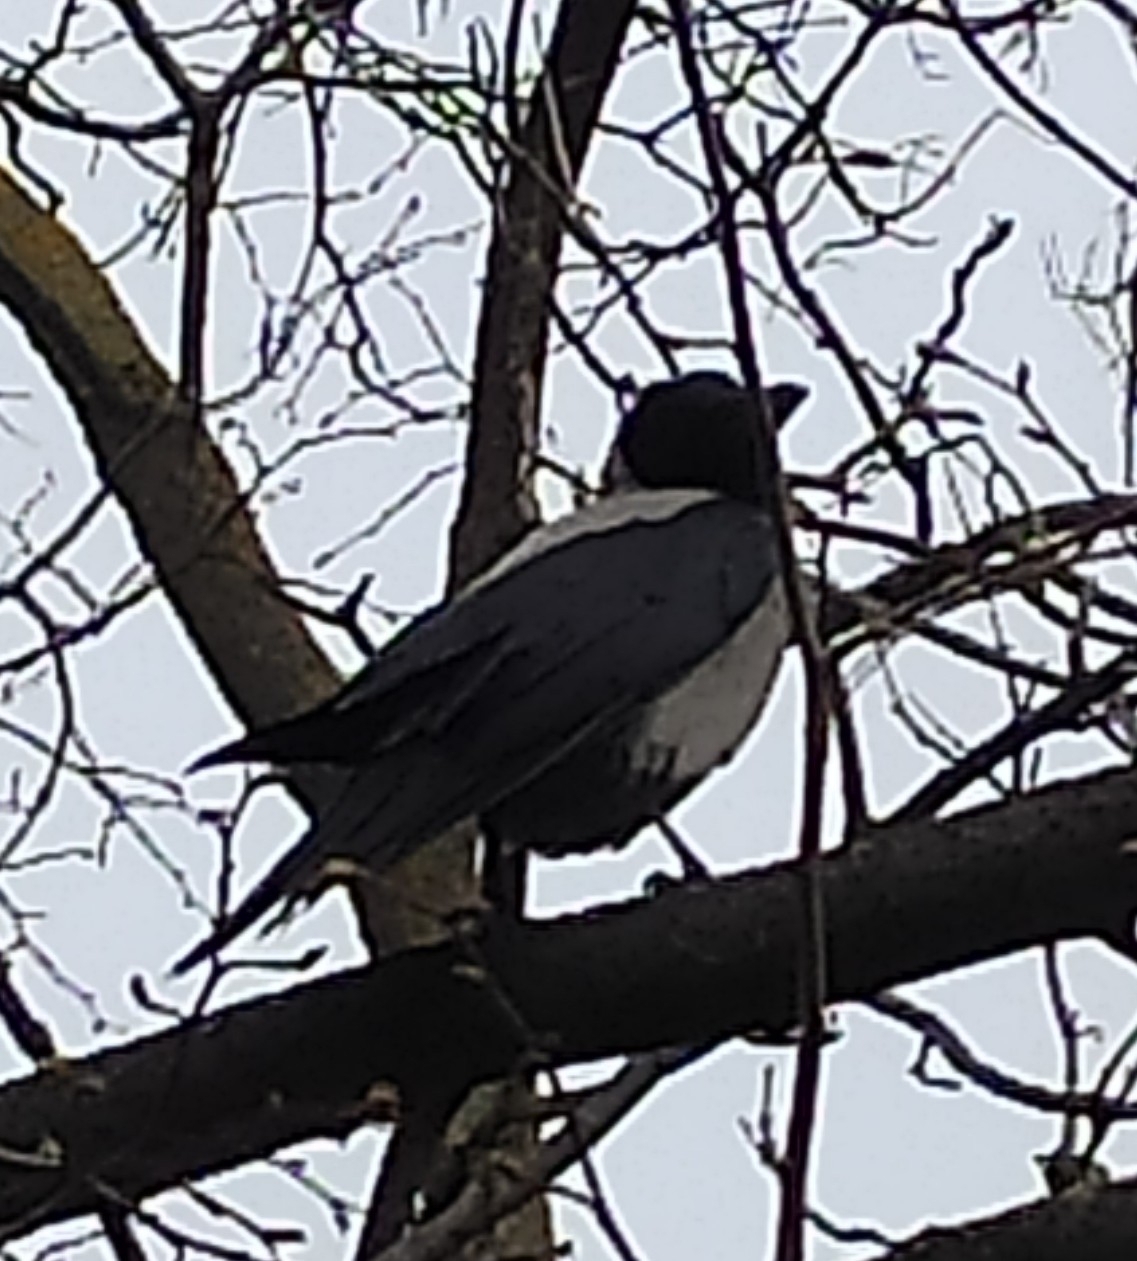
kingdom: Animalia
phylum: Chordata
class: Aves
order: Passeriformes
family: Corvidae
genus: Corvus
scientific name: Corvus cornix
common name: Hooded crow
